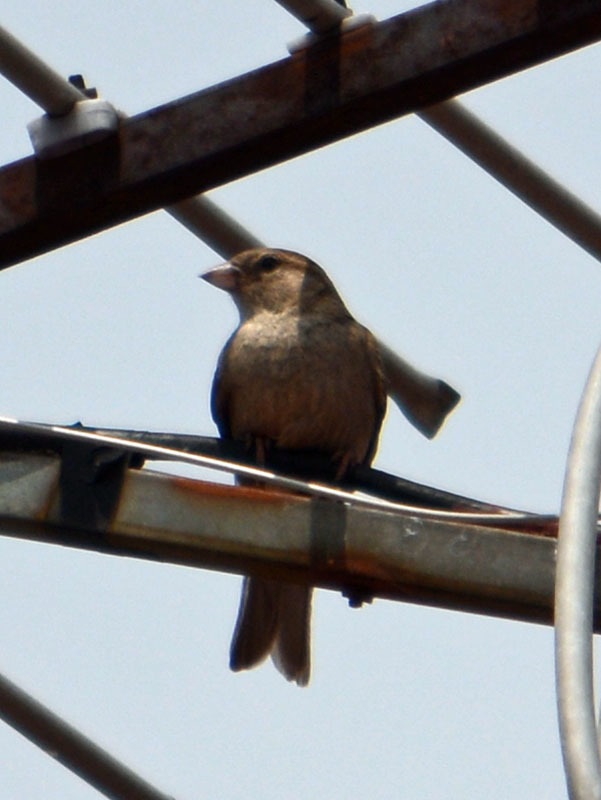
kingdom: Animalia
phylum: Chordata
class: Aves
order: Passeriformes
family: Passeridae
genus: Passer
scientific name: Passer domesticus
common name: House sparrow
